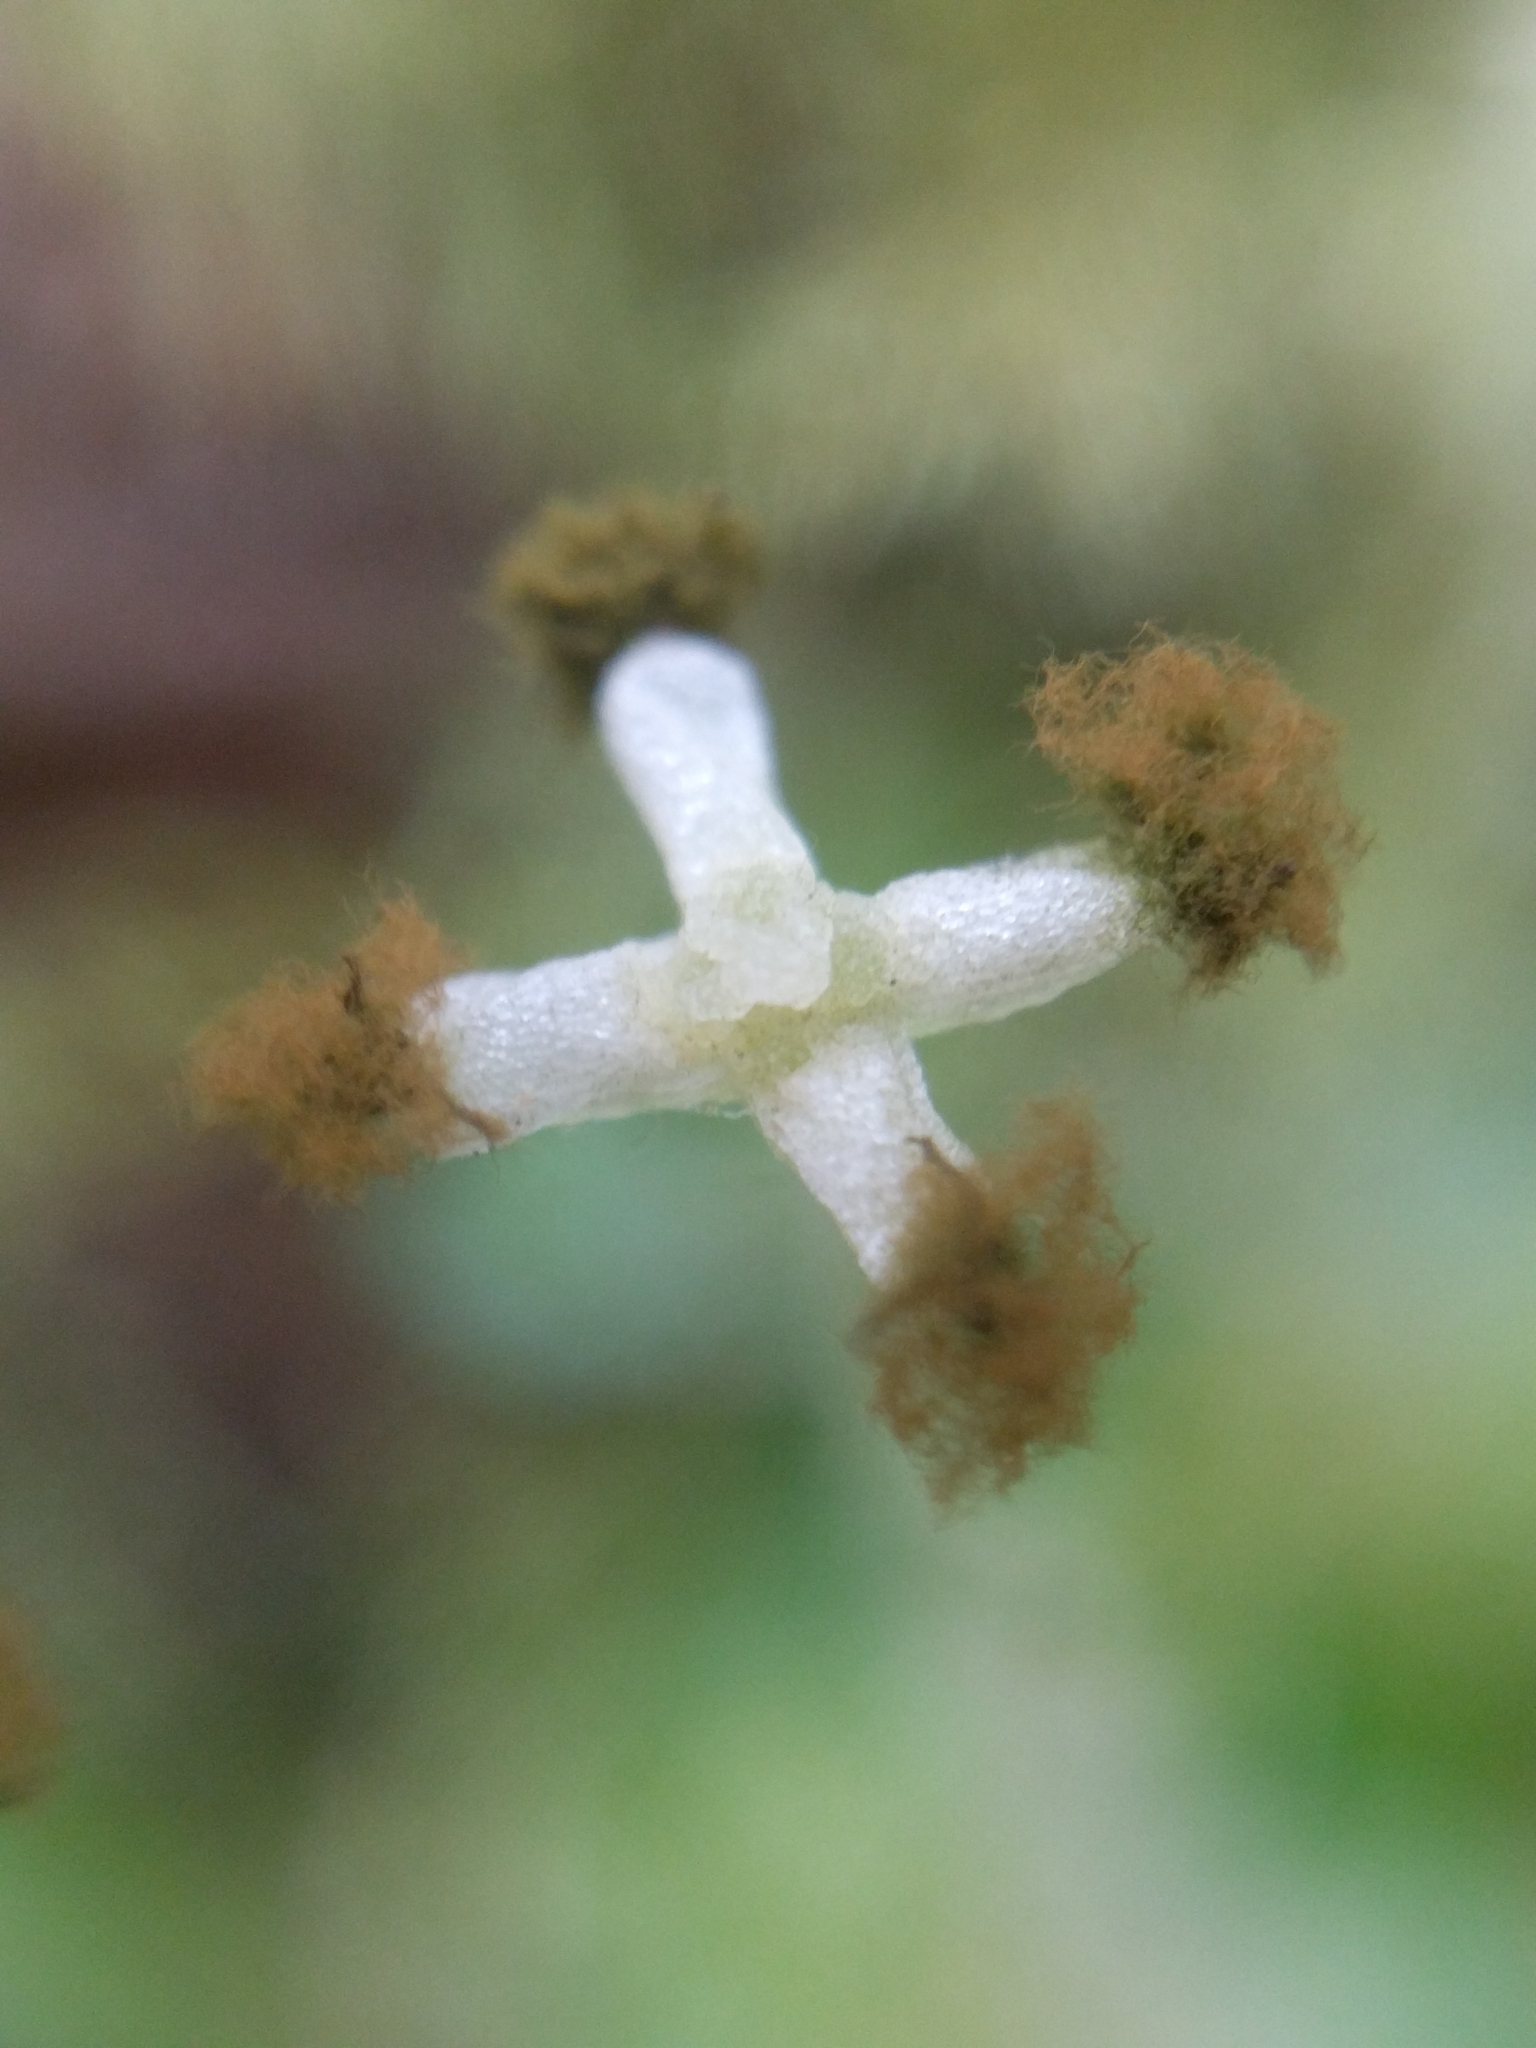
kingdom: Plantae
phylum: Marchantiophyta
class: Marchantiopsida
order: Lunulariales
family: Lunulariaceae
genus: Lunularia
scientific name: Lunularia cruciata
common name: Crescent-cup liverwort
